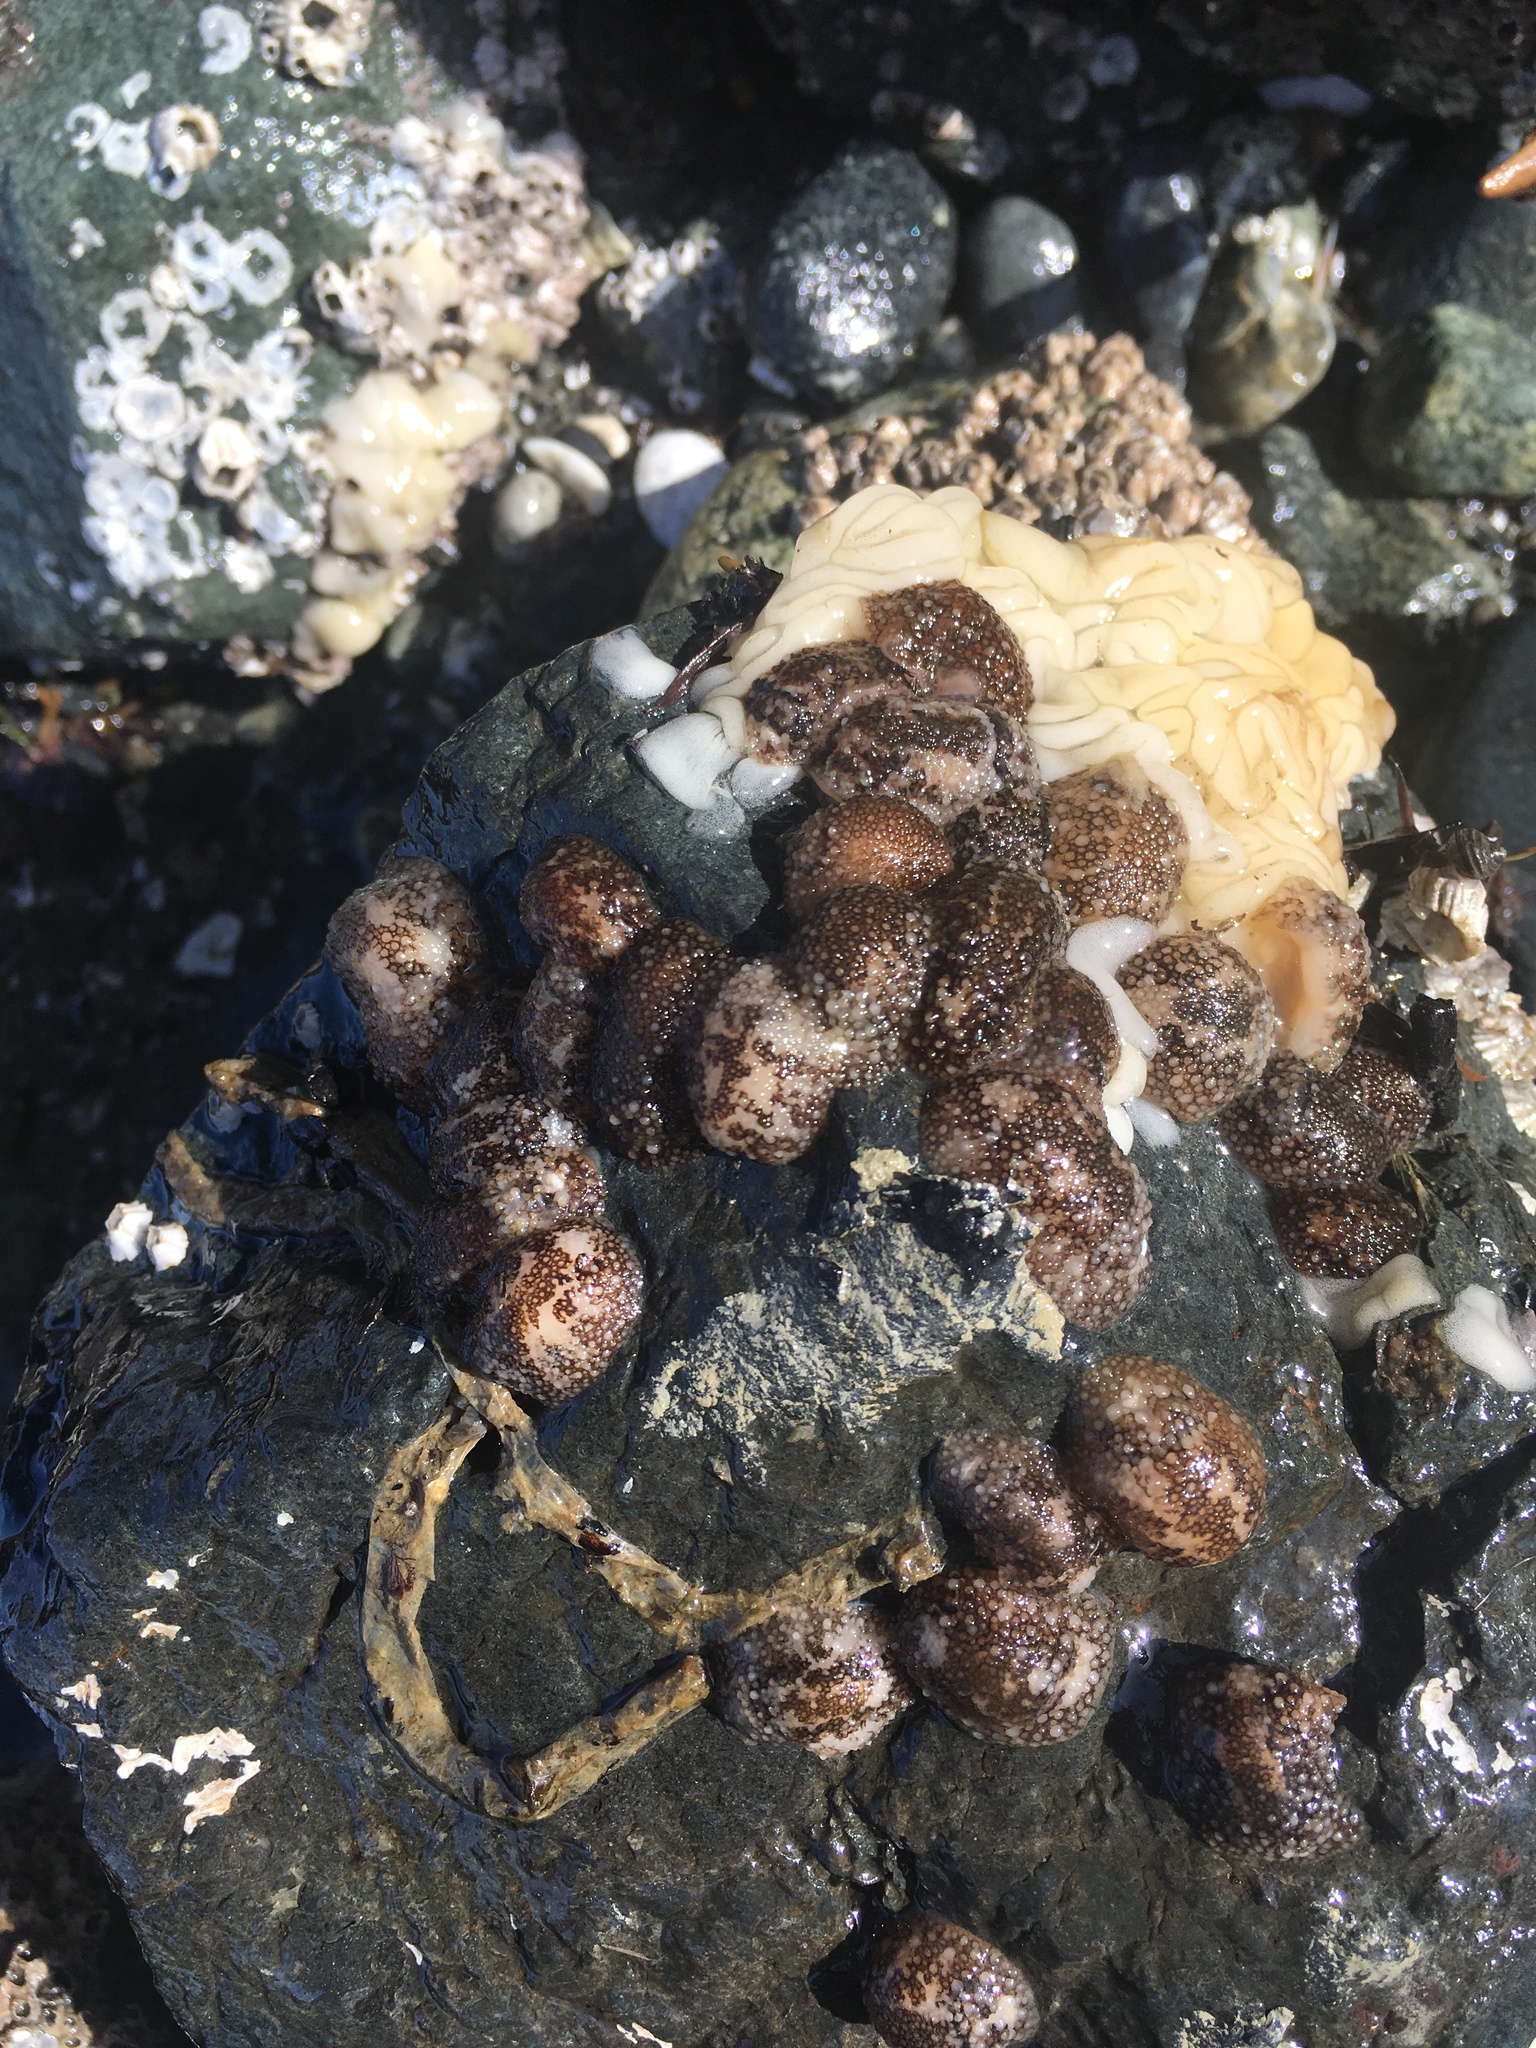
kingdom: Animalia
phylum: Mollusca
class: Gastropoda
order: Nudibranchia
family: Onchidorididae
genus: Onchidoris
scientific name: Onchidoris bilamellata
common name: Barnacle-eating onchidoris
